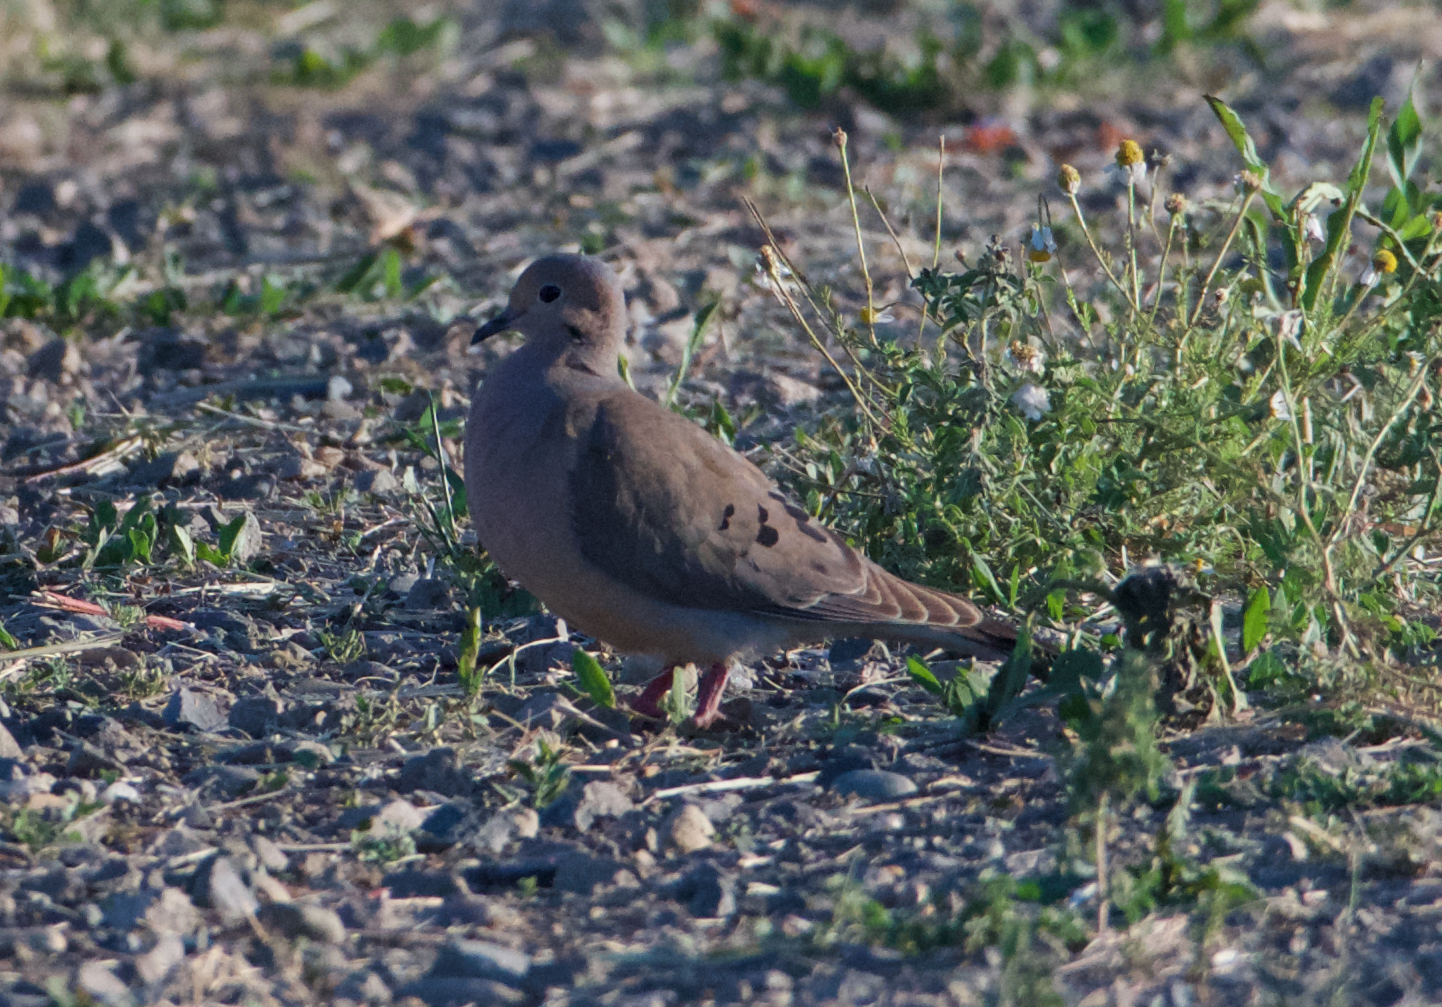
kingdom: Animalia
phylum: Chordata
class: Aves
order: Columbiformes
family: Columbidae
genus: Zenaida
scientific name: Zenaida macroura
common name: Mourning dove
